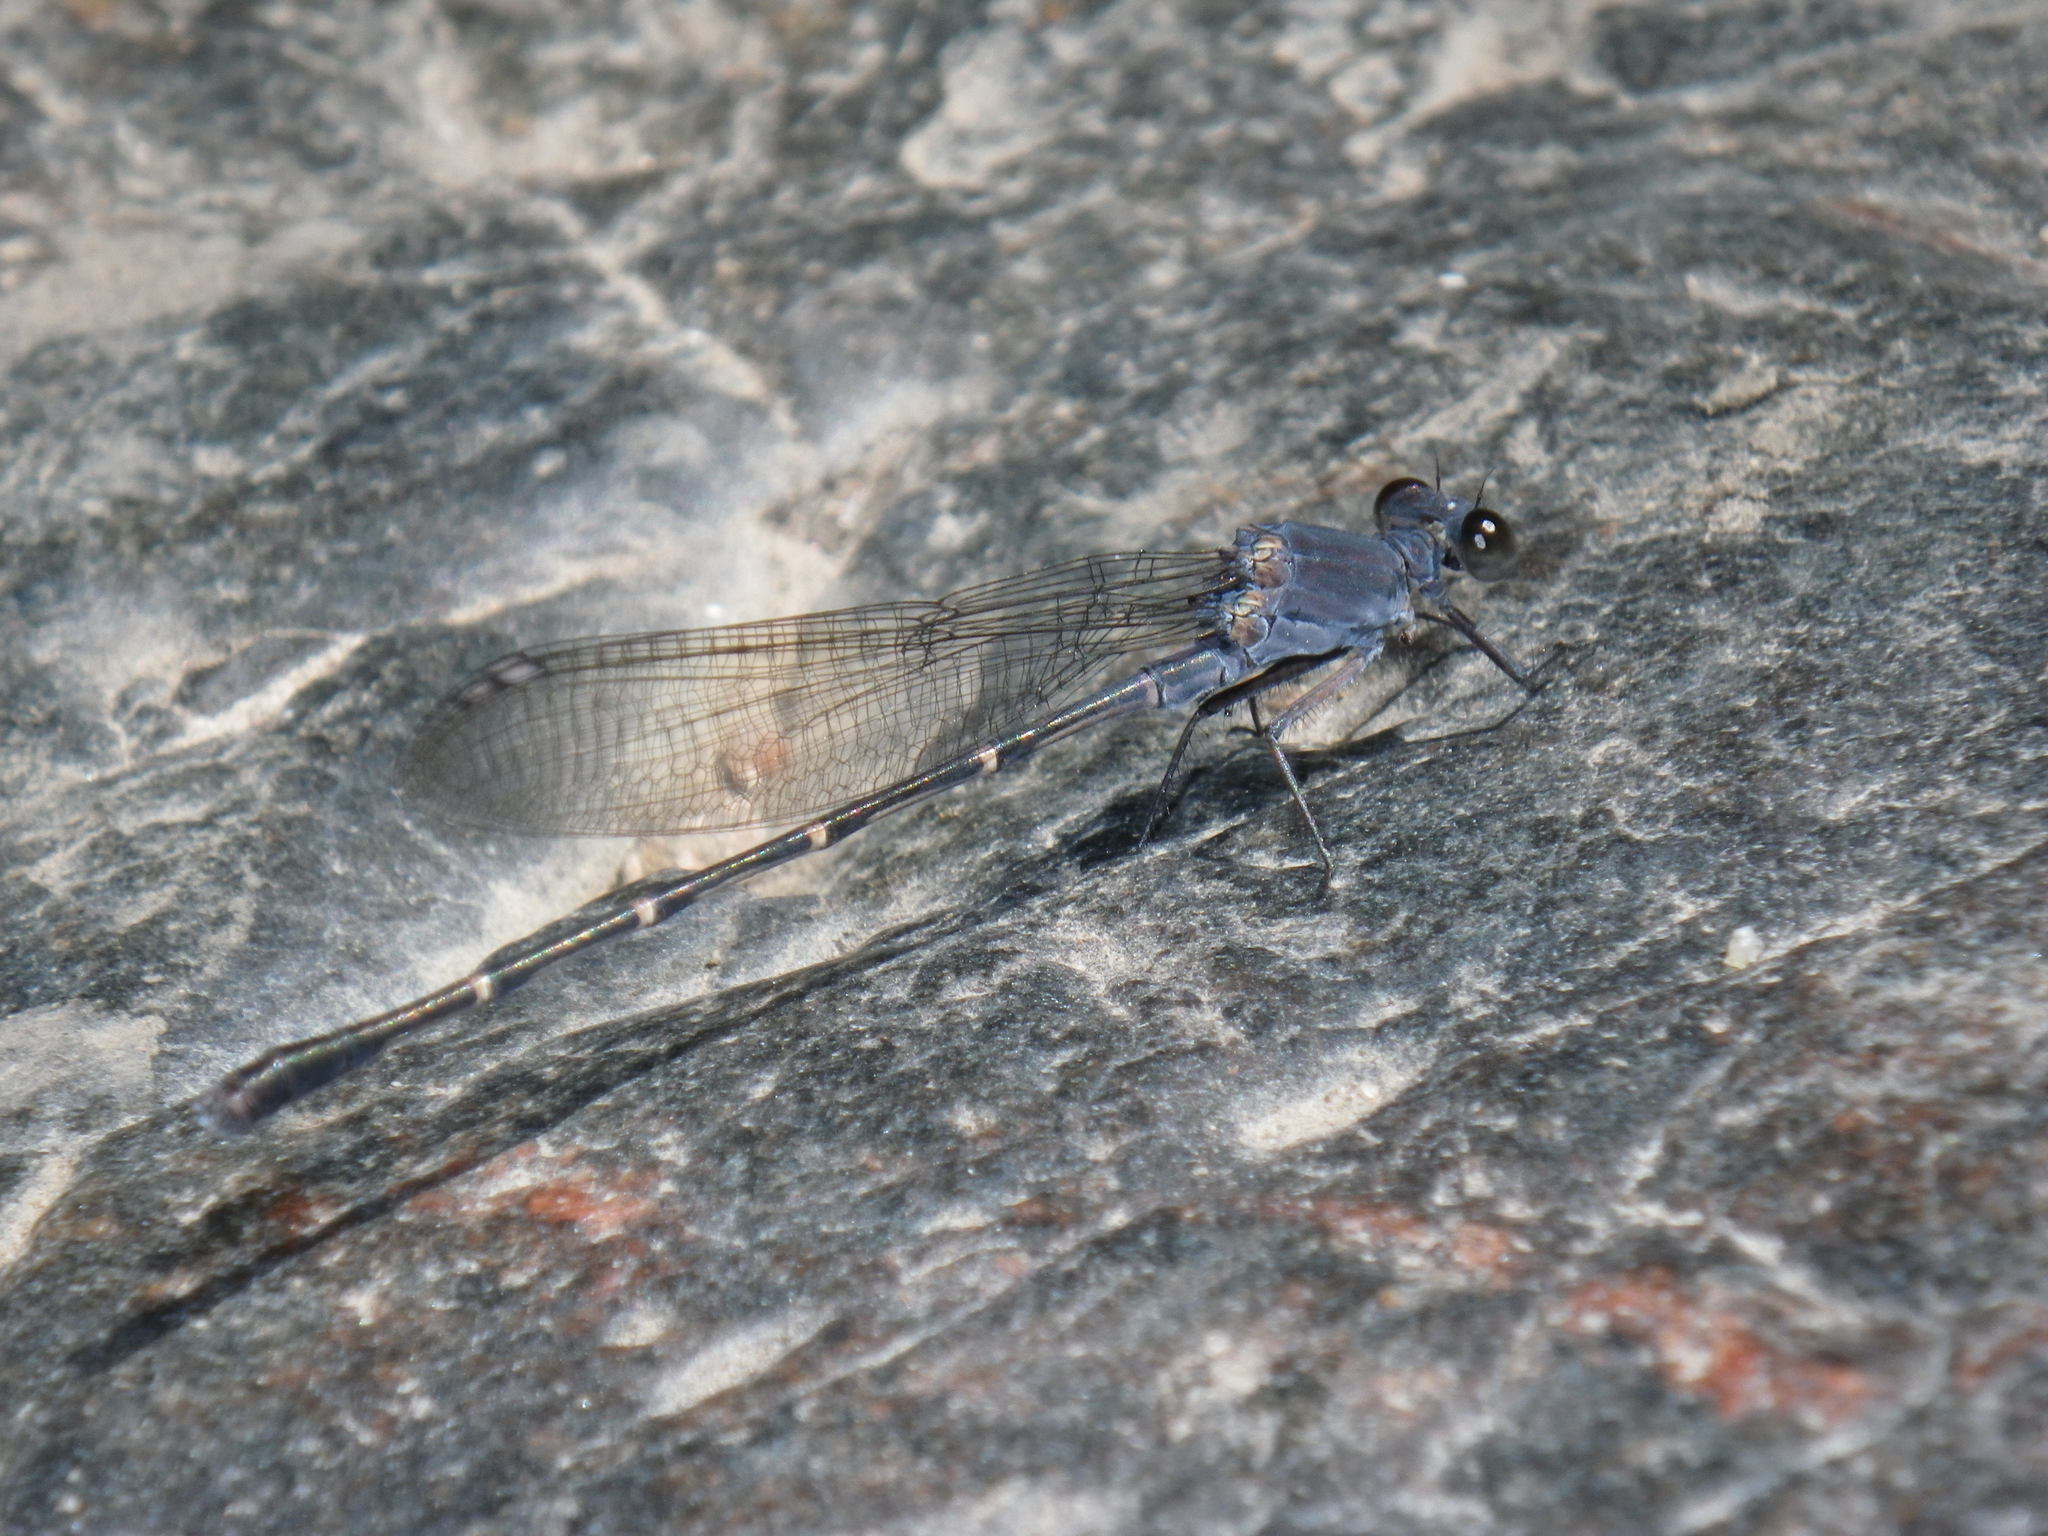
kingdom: Animalia
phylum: Arthropoda
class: Insecta
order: Odonata
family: Coenagrionidae
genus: Argia
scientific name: Argia lugens
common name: Sooty dancer
